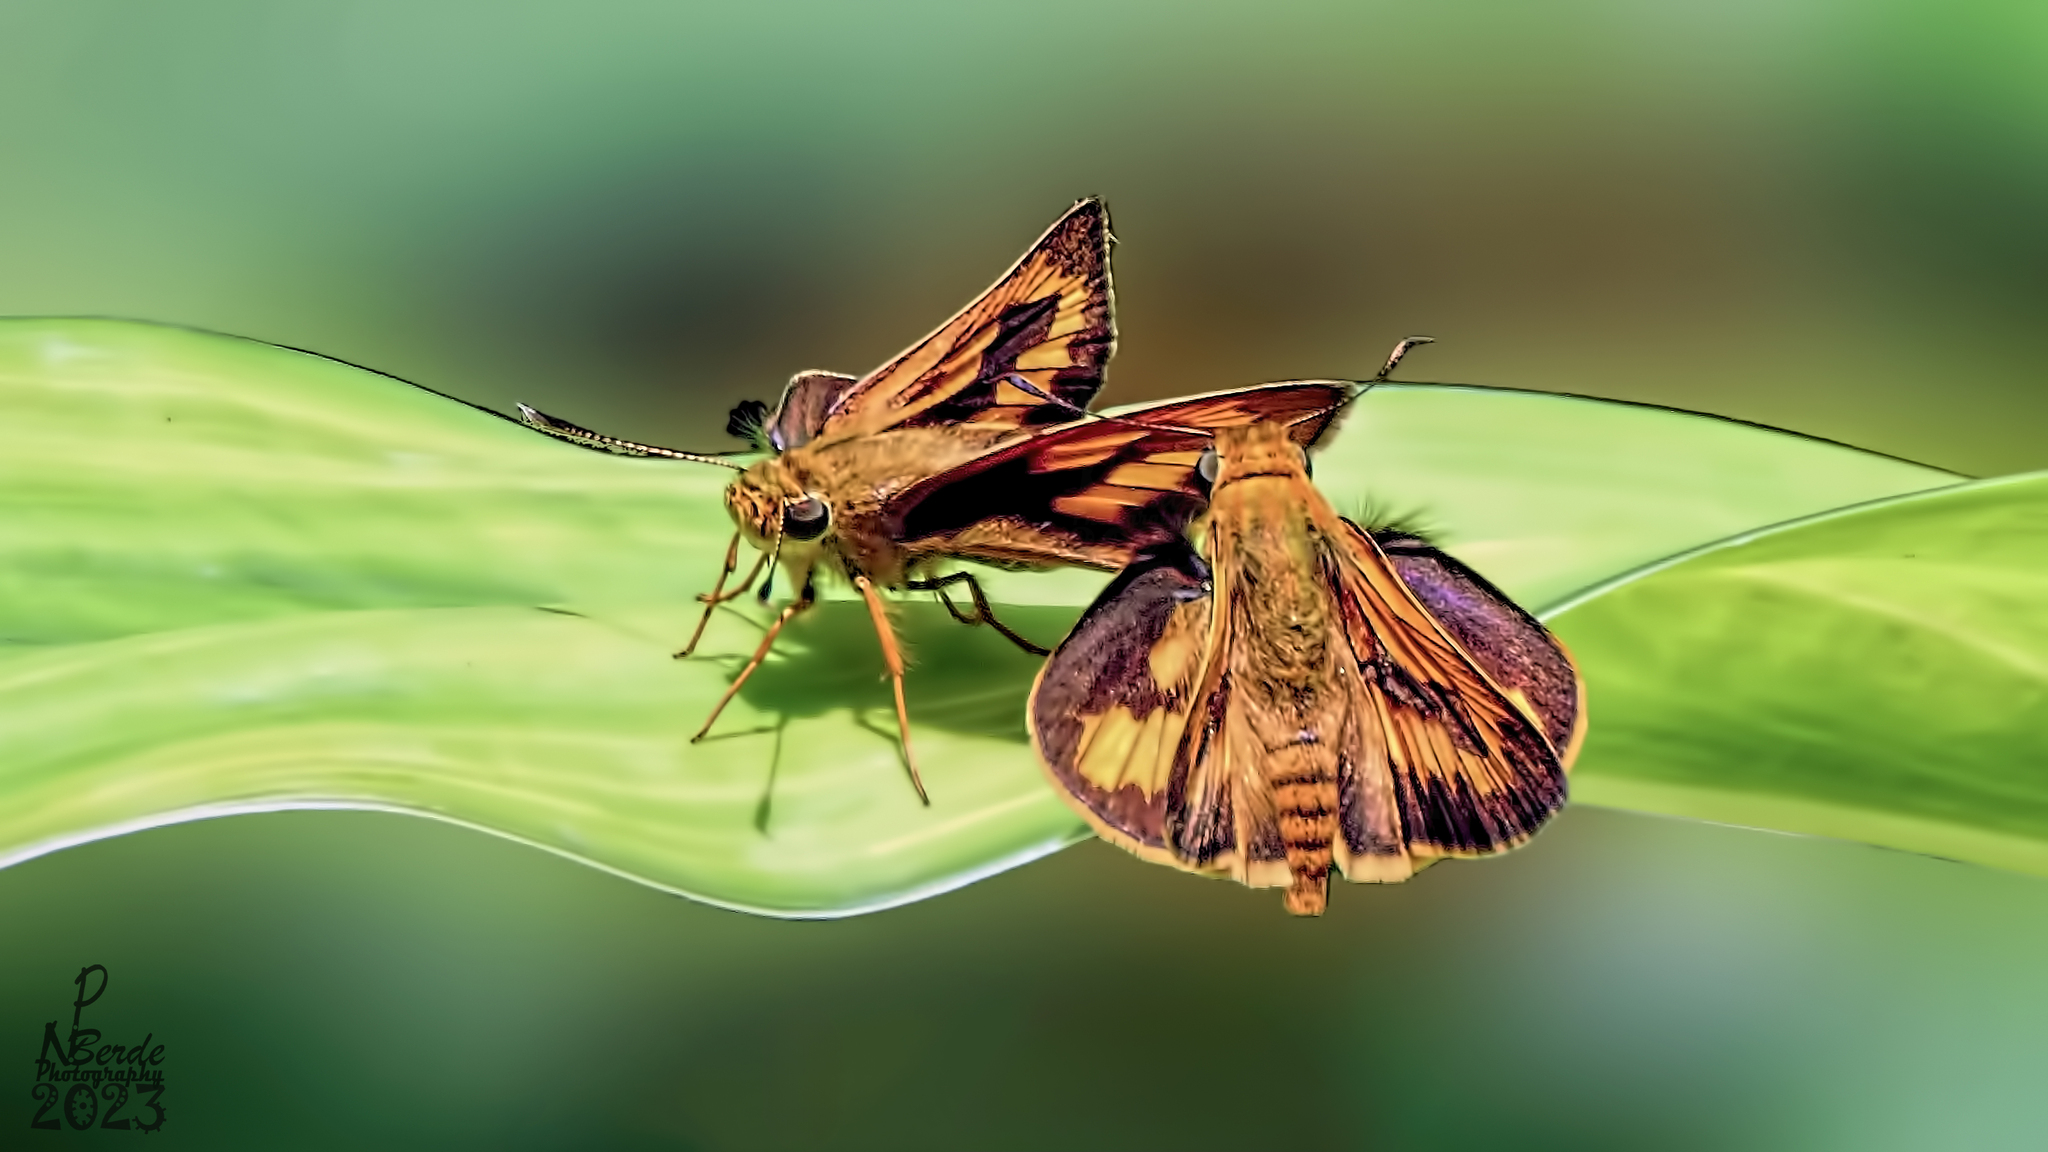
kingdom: Animalia
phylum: Arthropoda
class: Insecta
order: Lepidoptera
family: Hesperiidae
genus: Telicota
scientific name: Telicota bambusae
